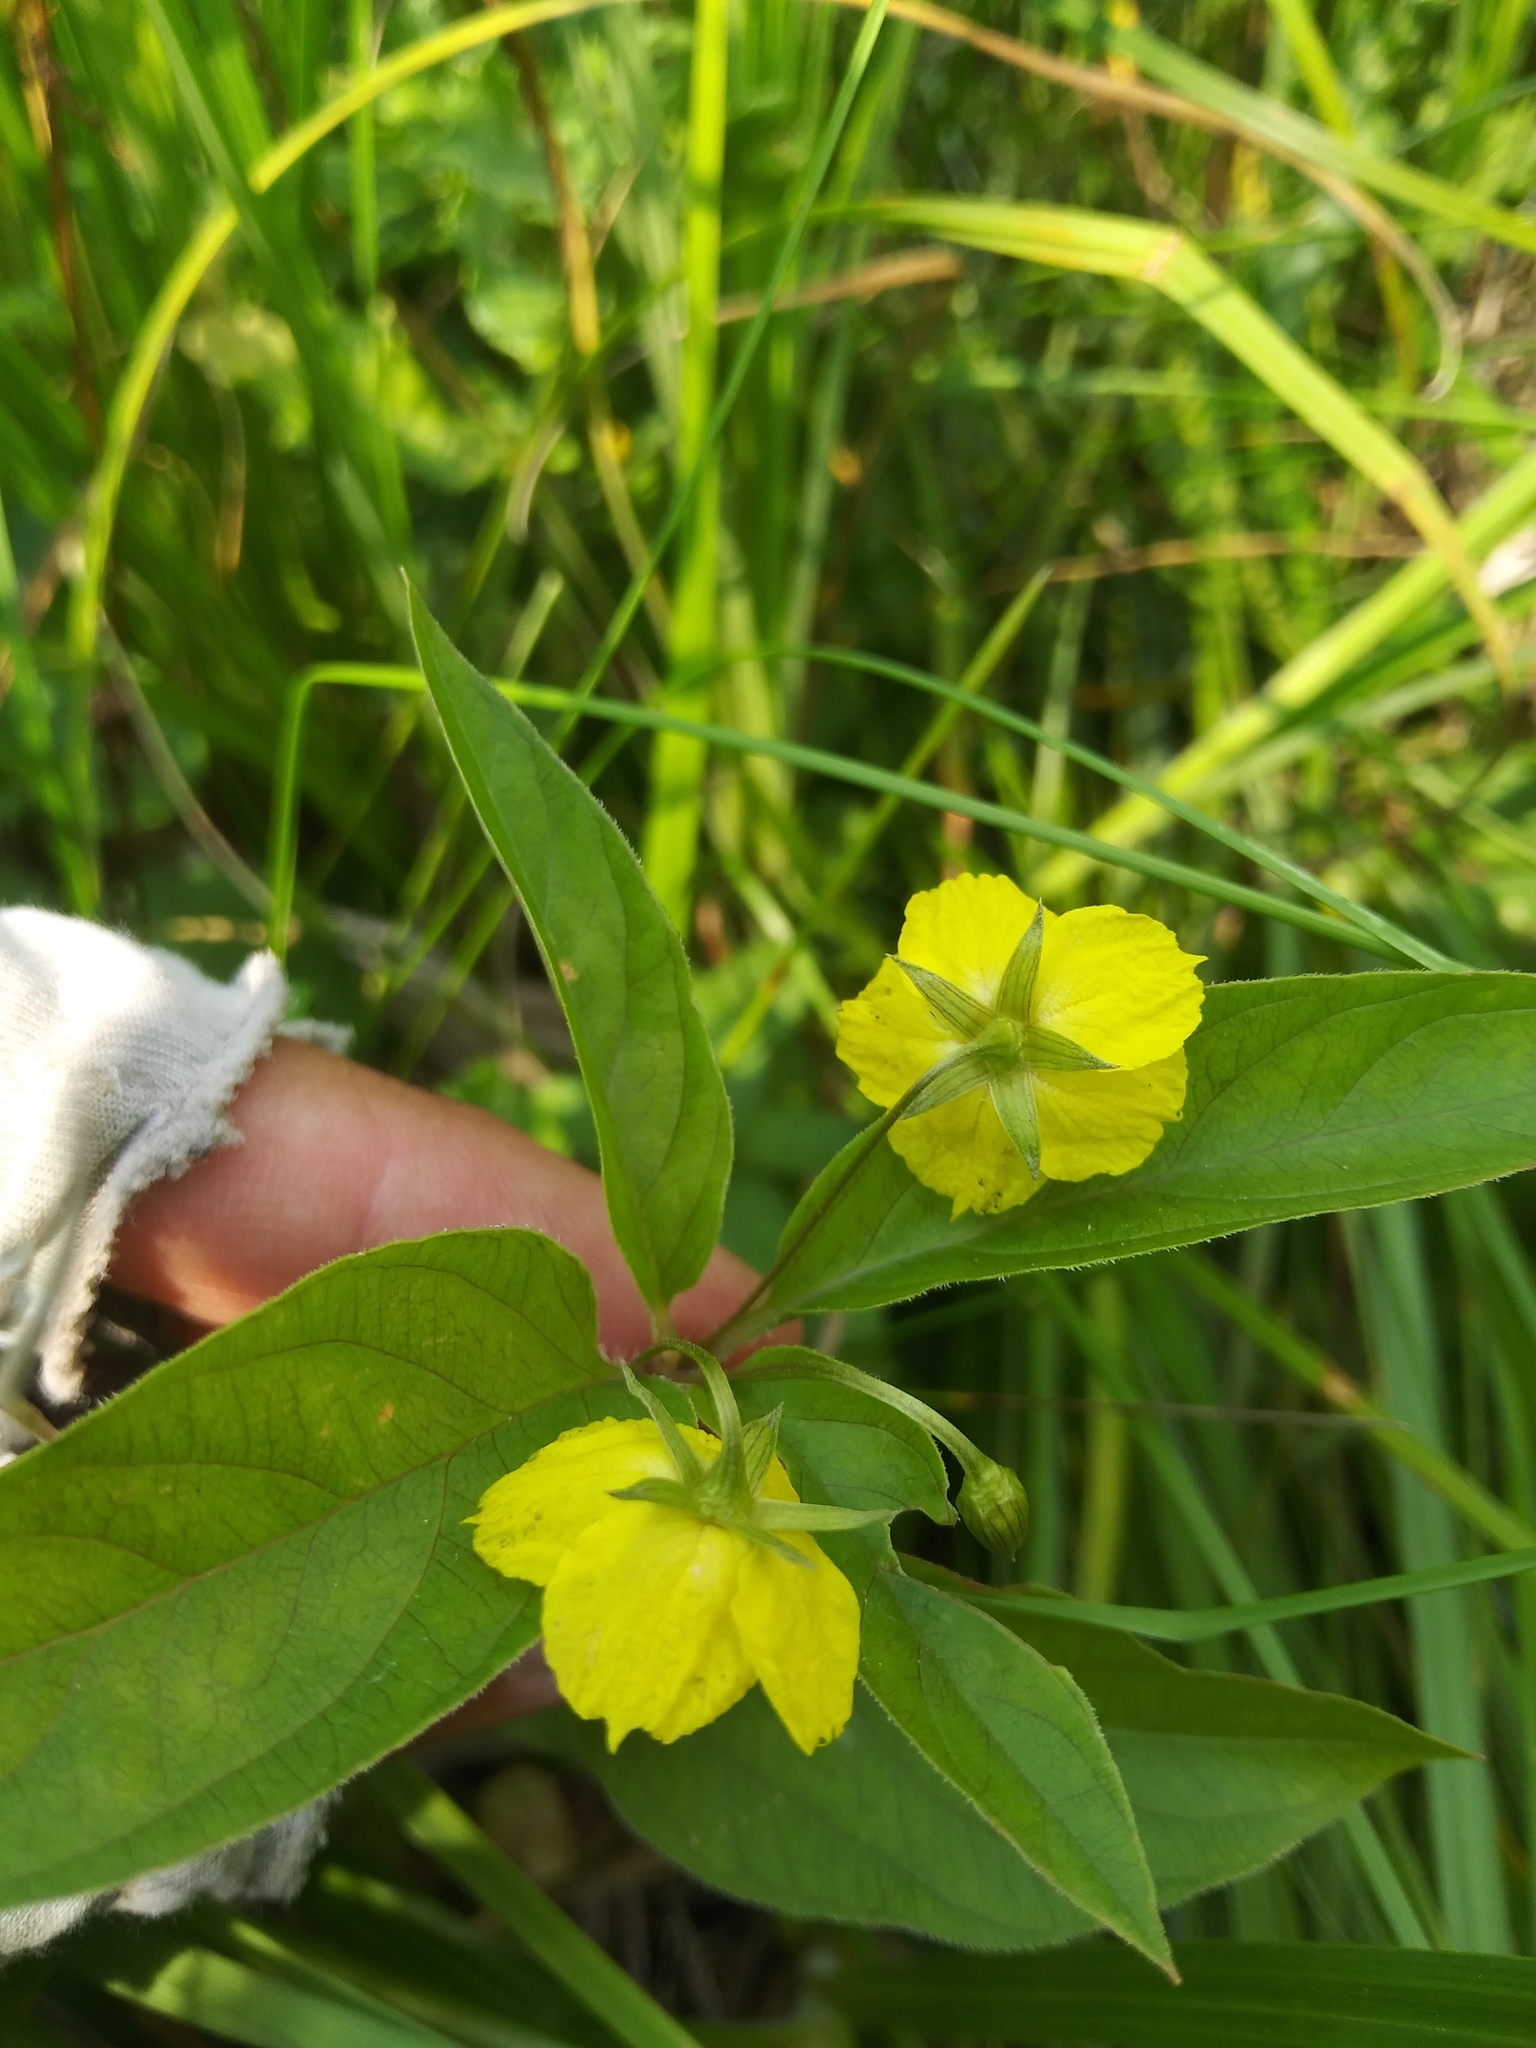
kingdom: Plantae
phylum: Tracheophyta
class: Magnoliopsida
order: Ericales
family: Primulaceae
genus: Lysimachia
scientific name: Lysimachia ciliata
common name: Fringed loosestrife
